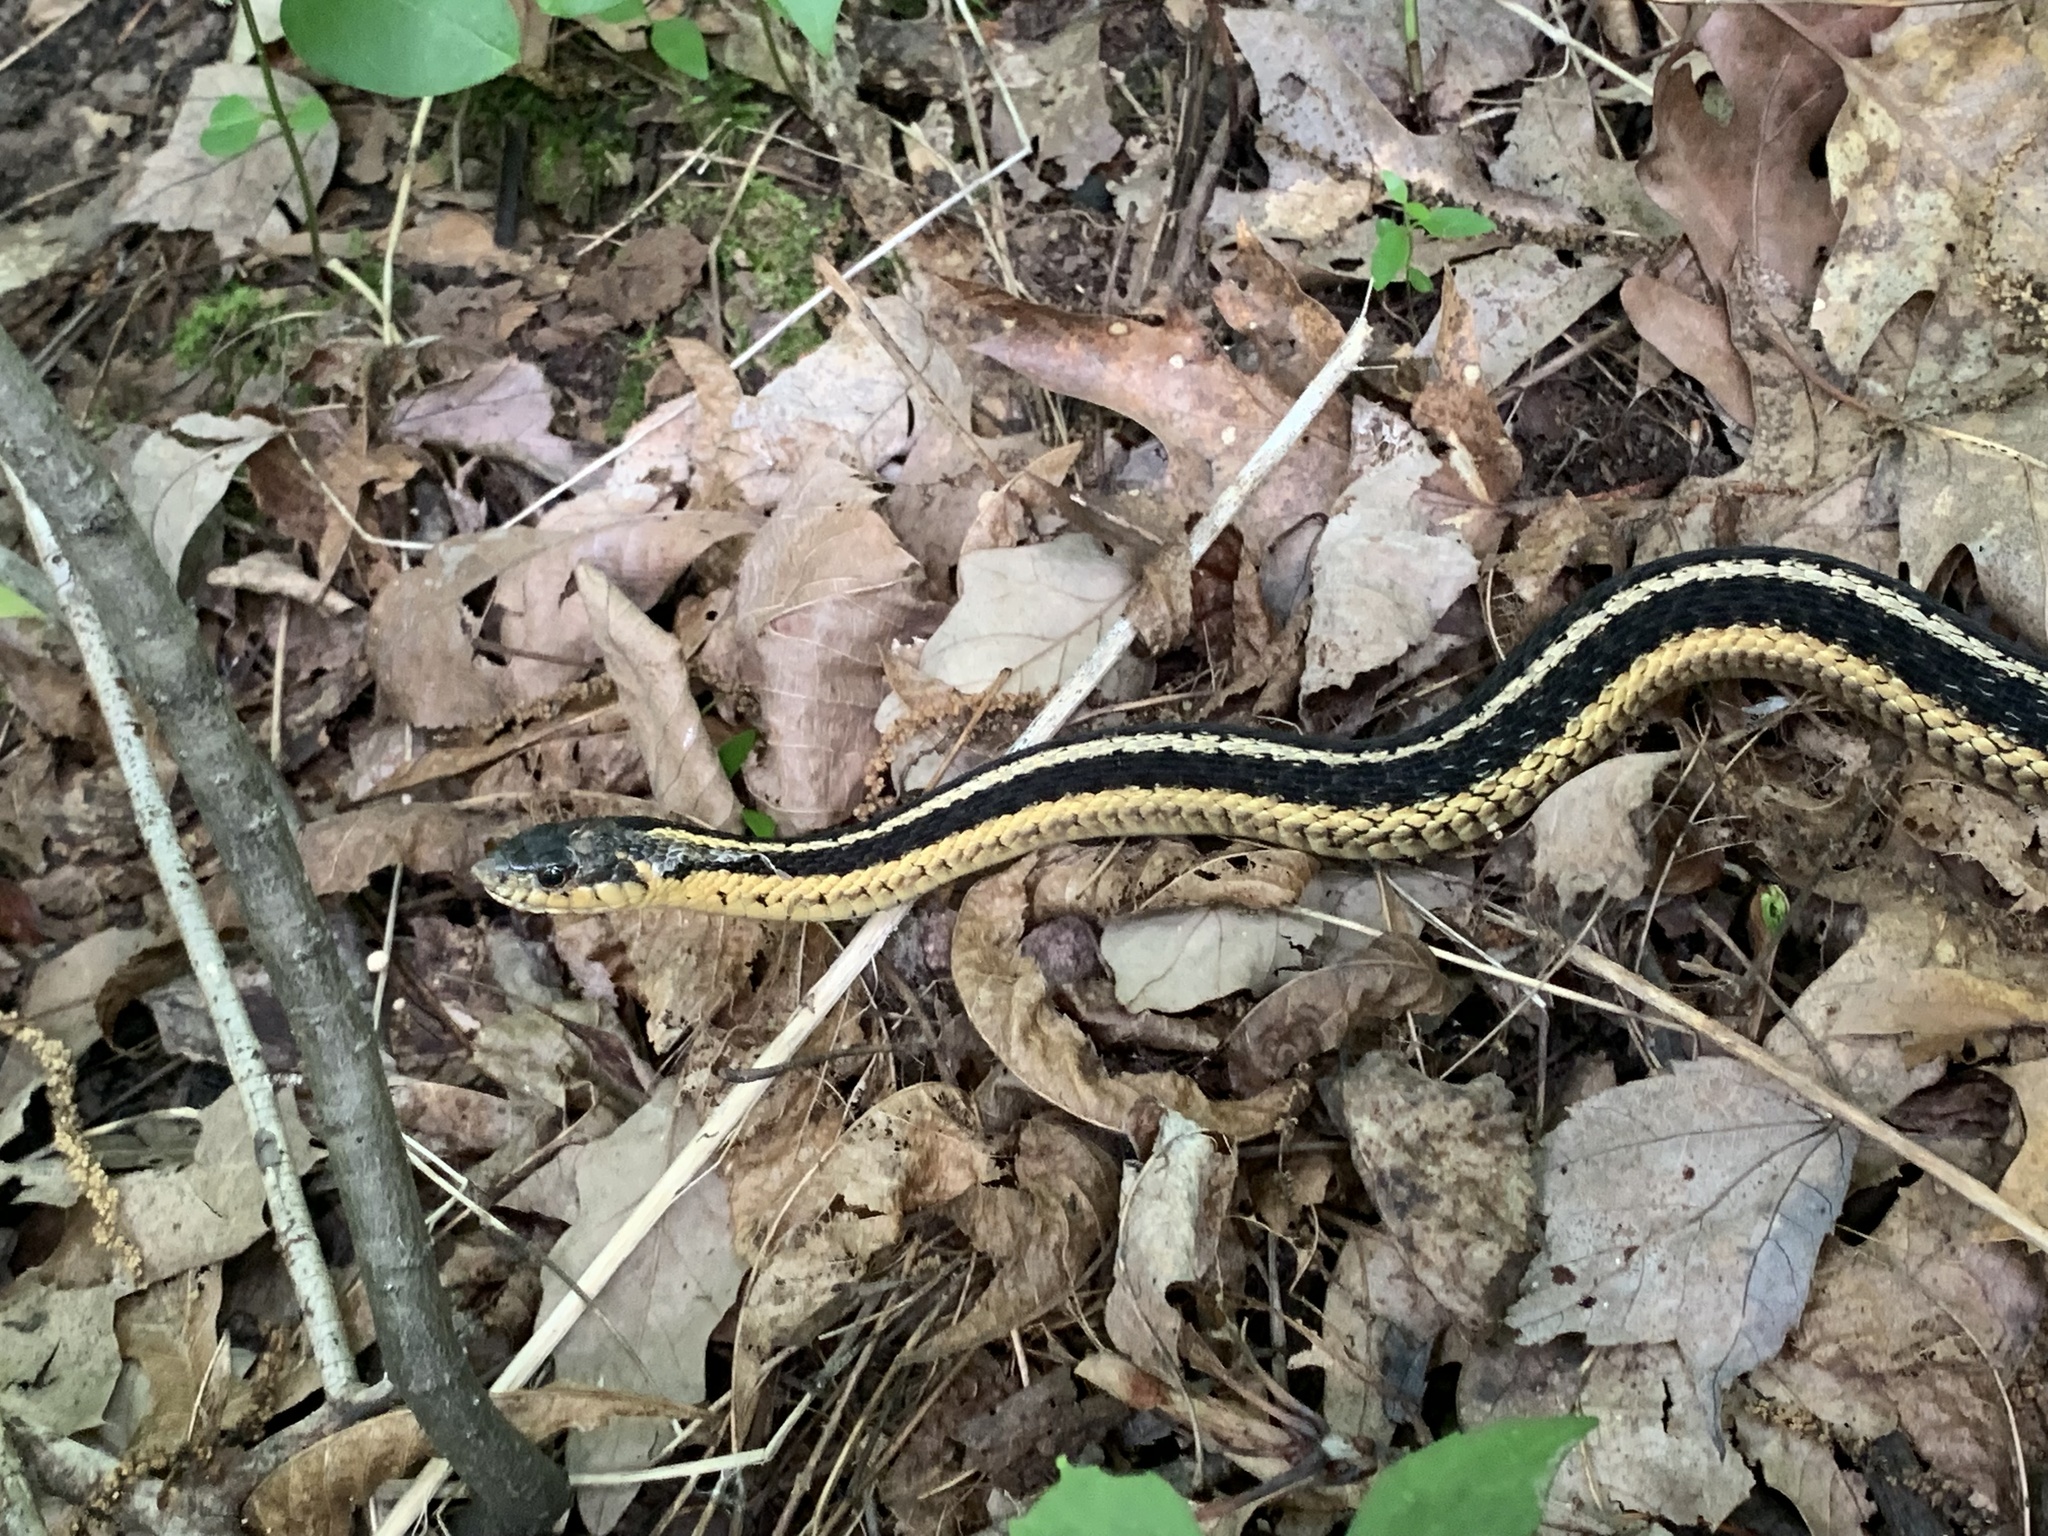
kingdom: Animalia
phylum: Chordata
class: Squamata
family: Colubridae
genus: Thamnophis
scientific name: Thamnophis sirtalis
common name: Common garter snake
